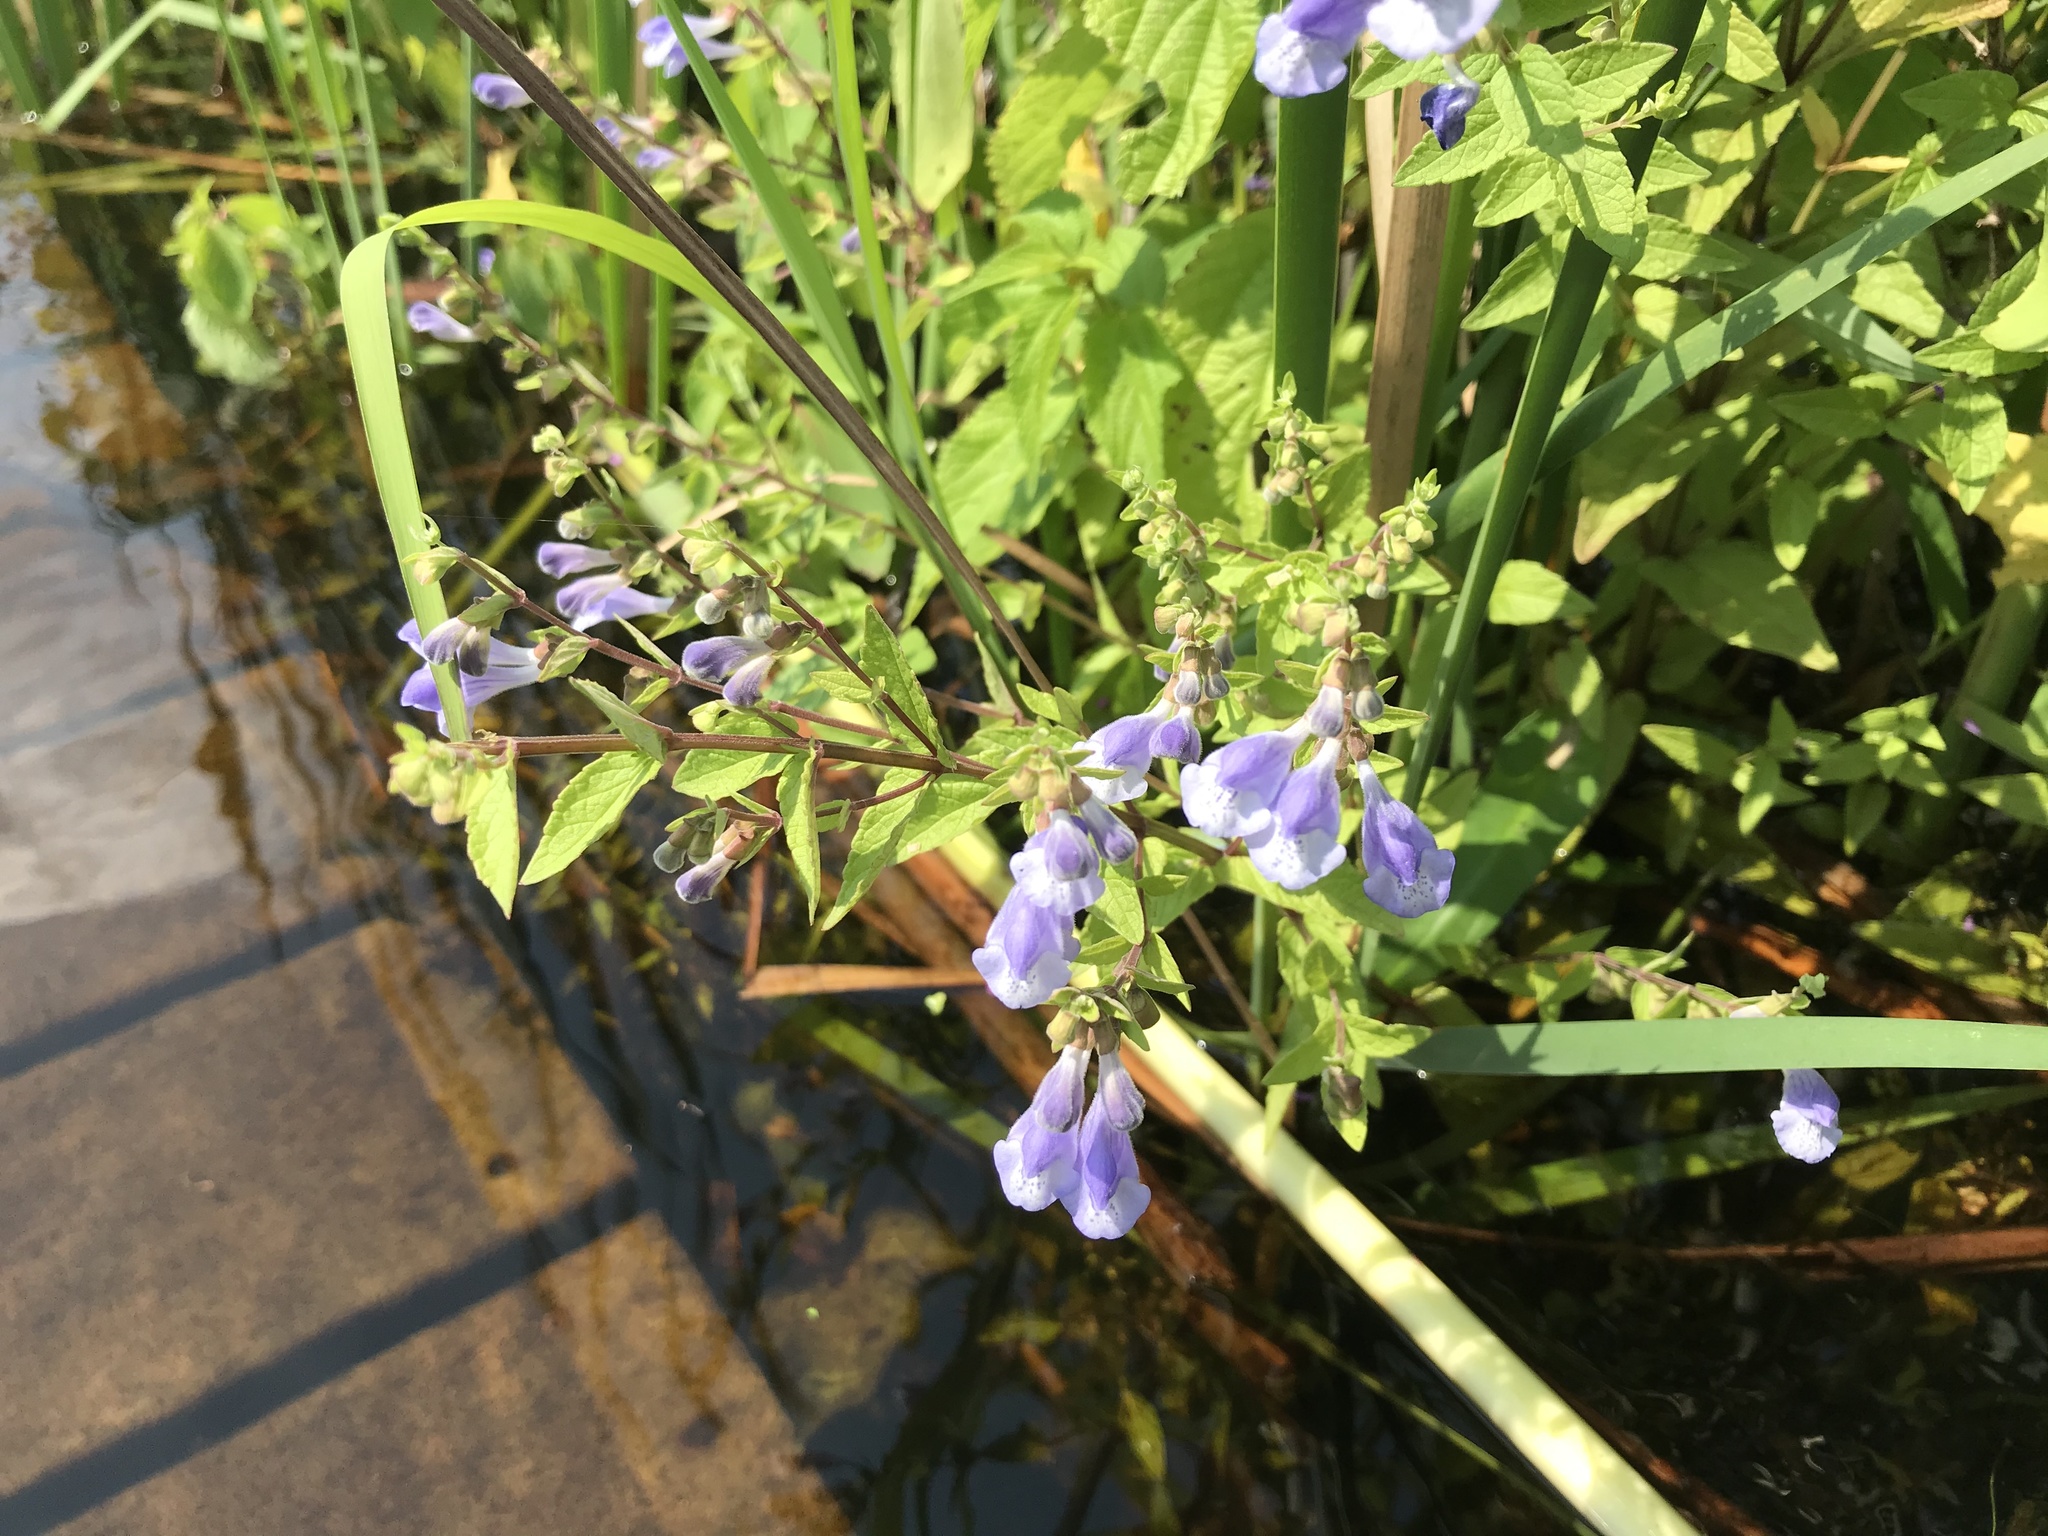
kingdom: Plantae
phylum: Tracheophyta
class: Magnoliopsida
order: Lamiales
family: Lamiaceae
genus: Scutellaria
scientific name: Scutellaria galericulata
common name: Skullcap
